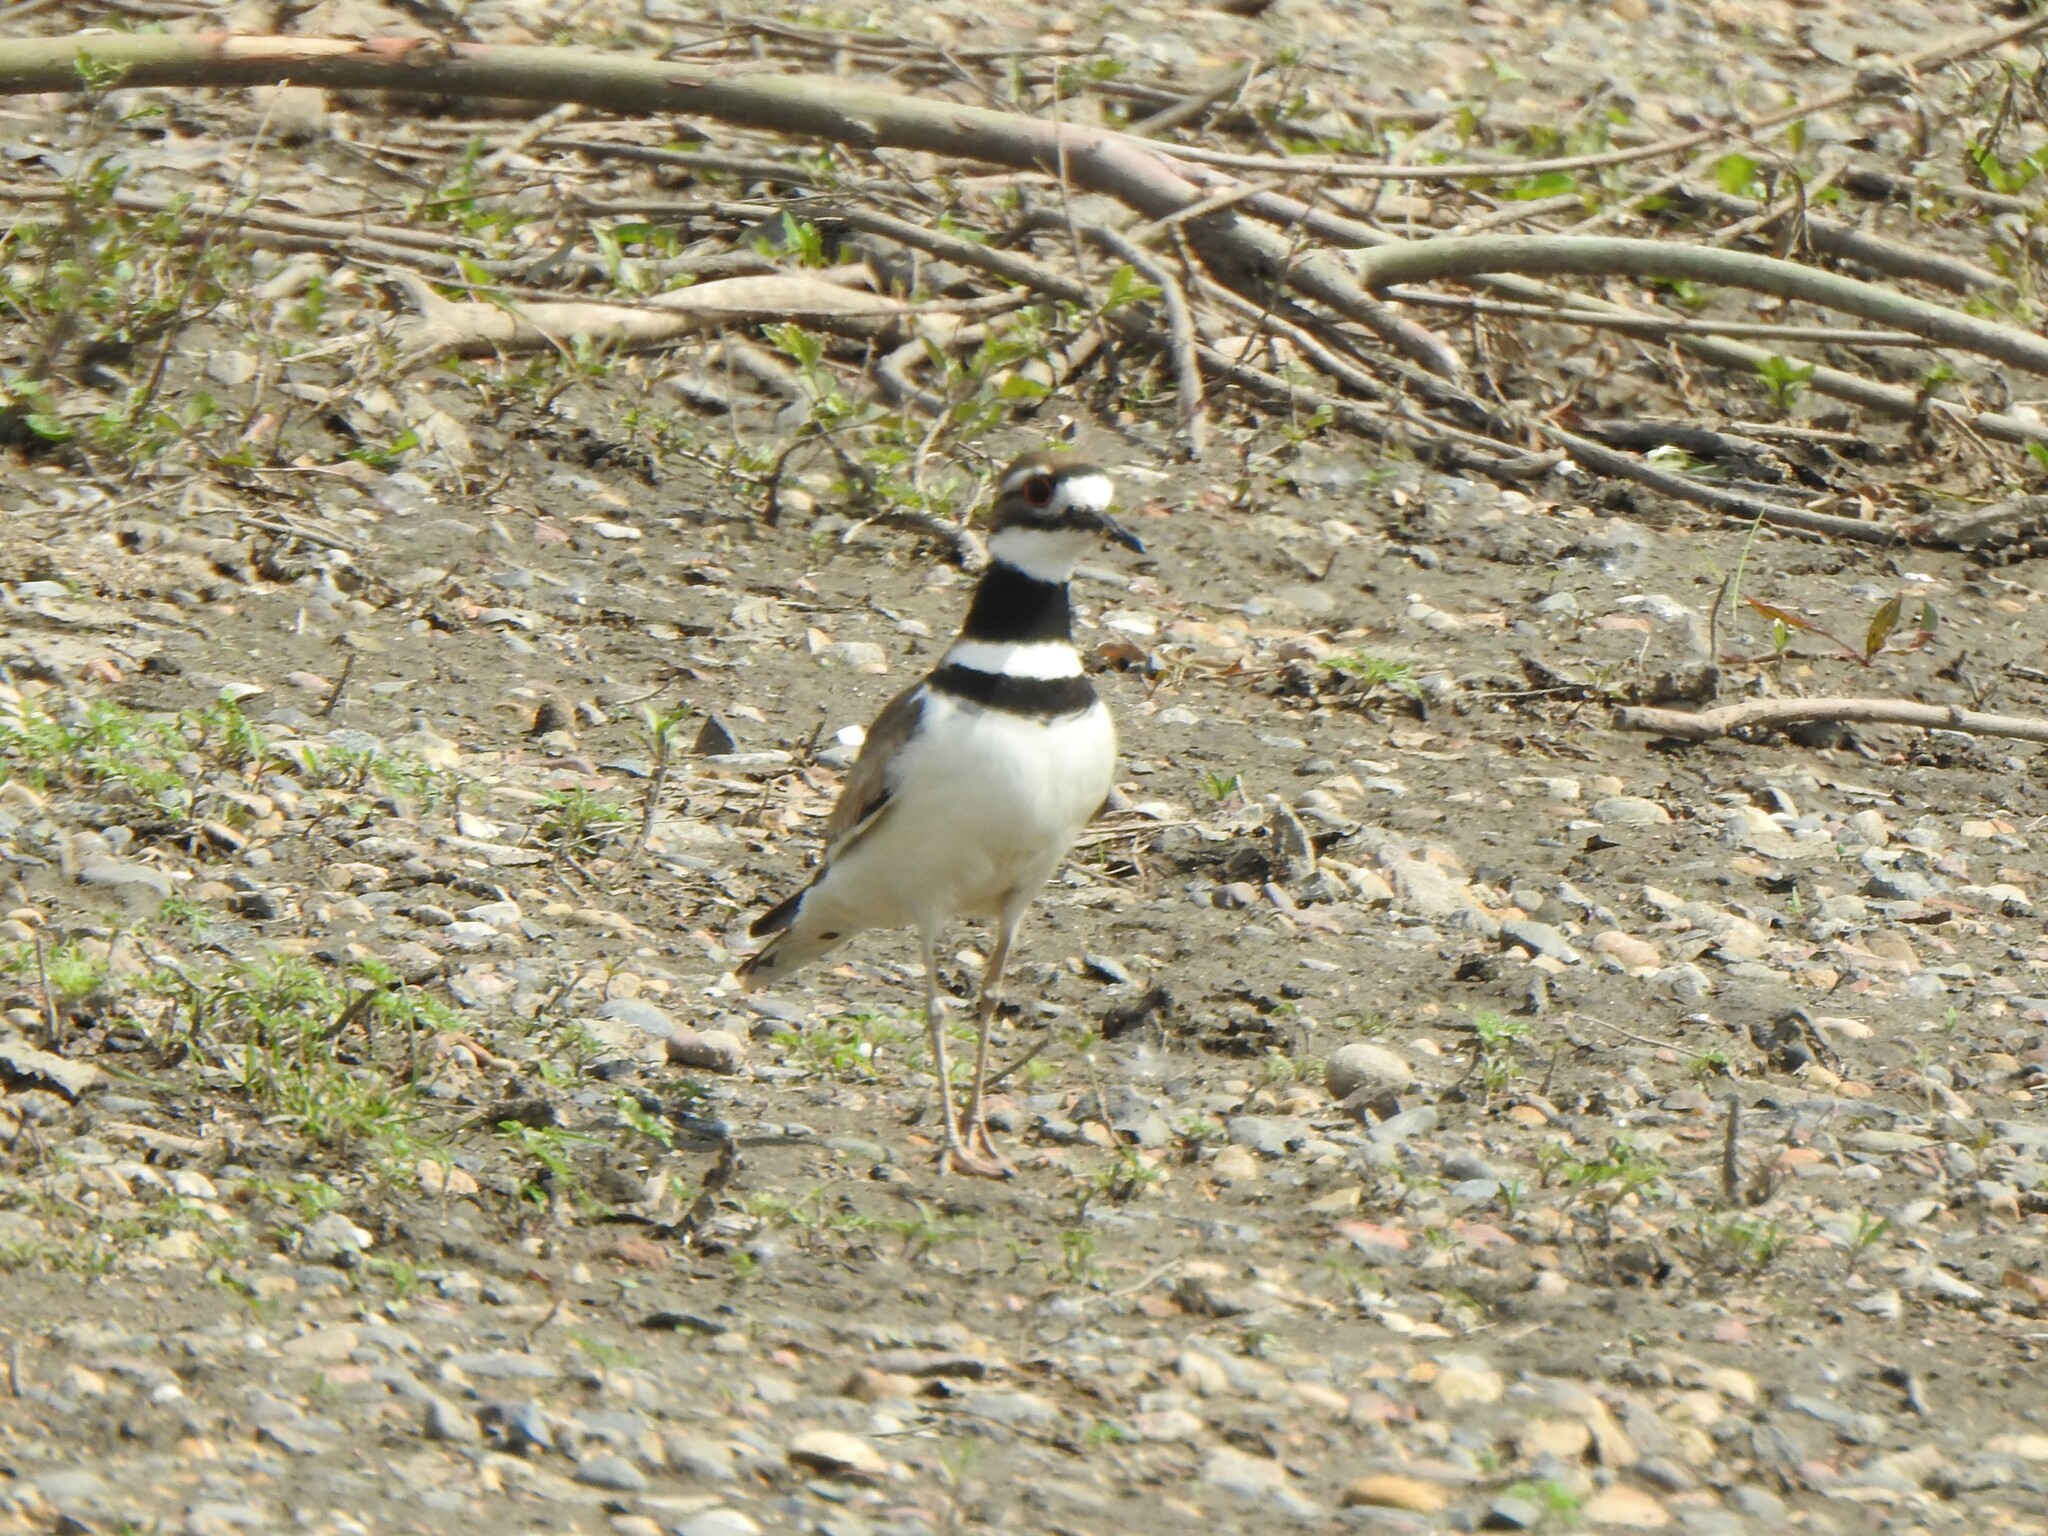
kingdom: Animalia
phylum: Chordata
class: Aves
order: Charadriiformes
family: Charadriidae
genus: Charadrius
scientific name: Charadrius vociferus
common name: Killdeer
